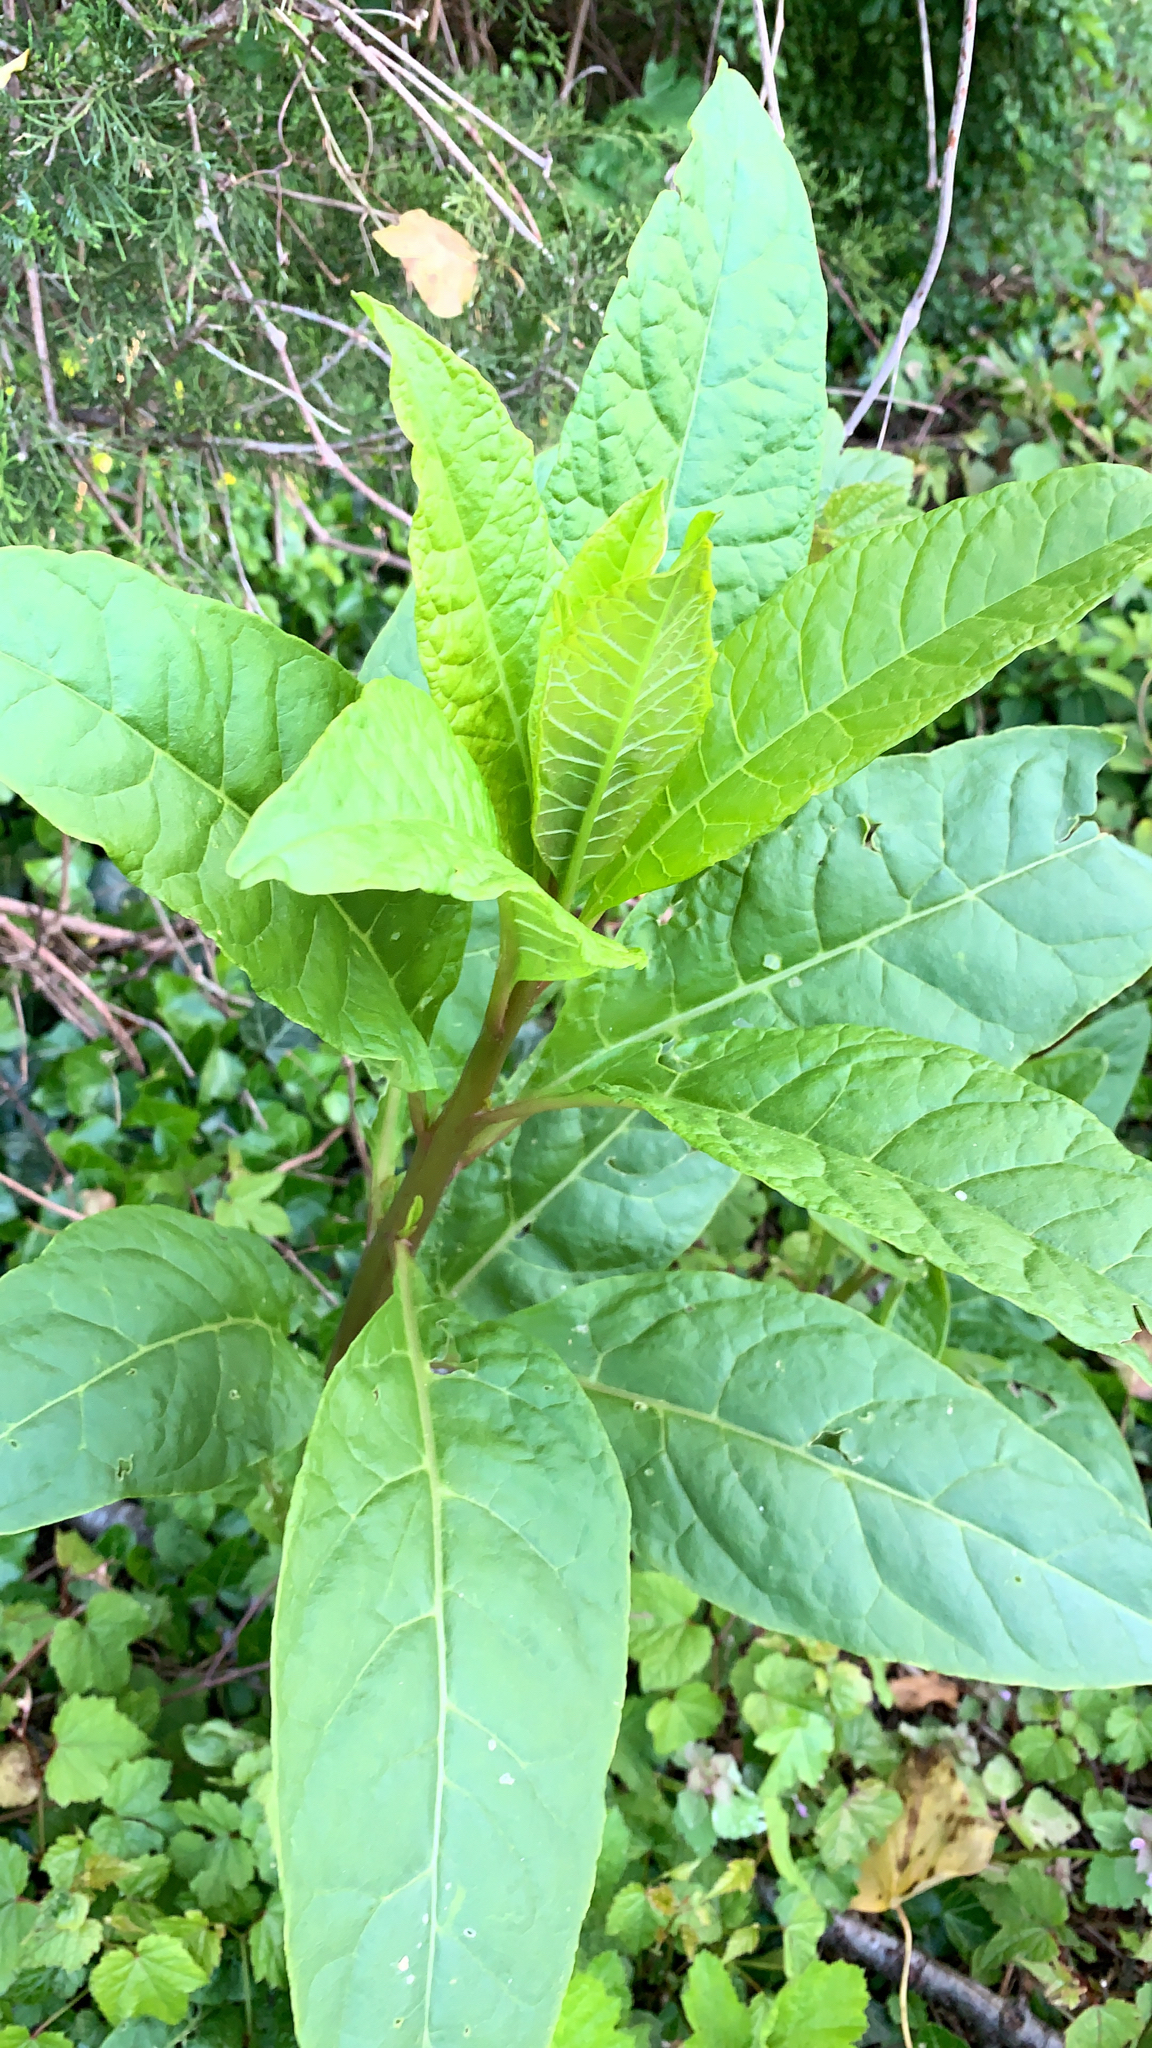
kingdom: Plantae
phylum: Tracheophyta
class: Magnoliopsida
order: Caryophyllales
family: Phytolaccaceae
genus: Phytolacca
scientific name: Phytolacca americana
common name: American pokeweed
